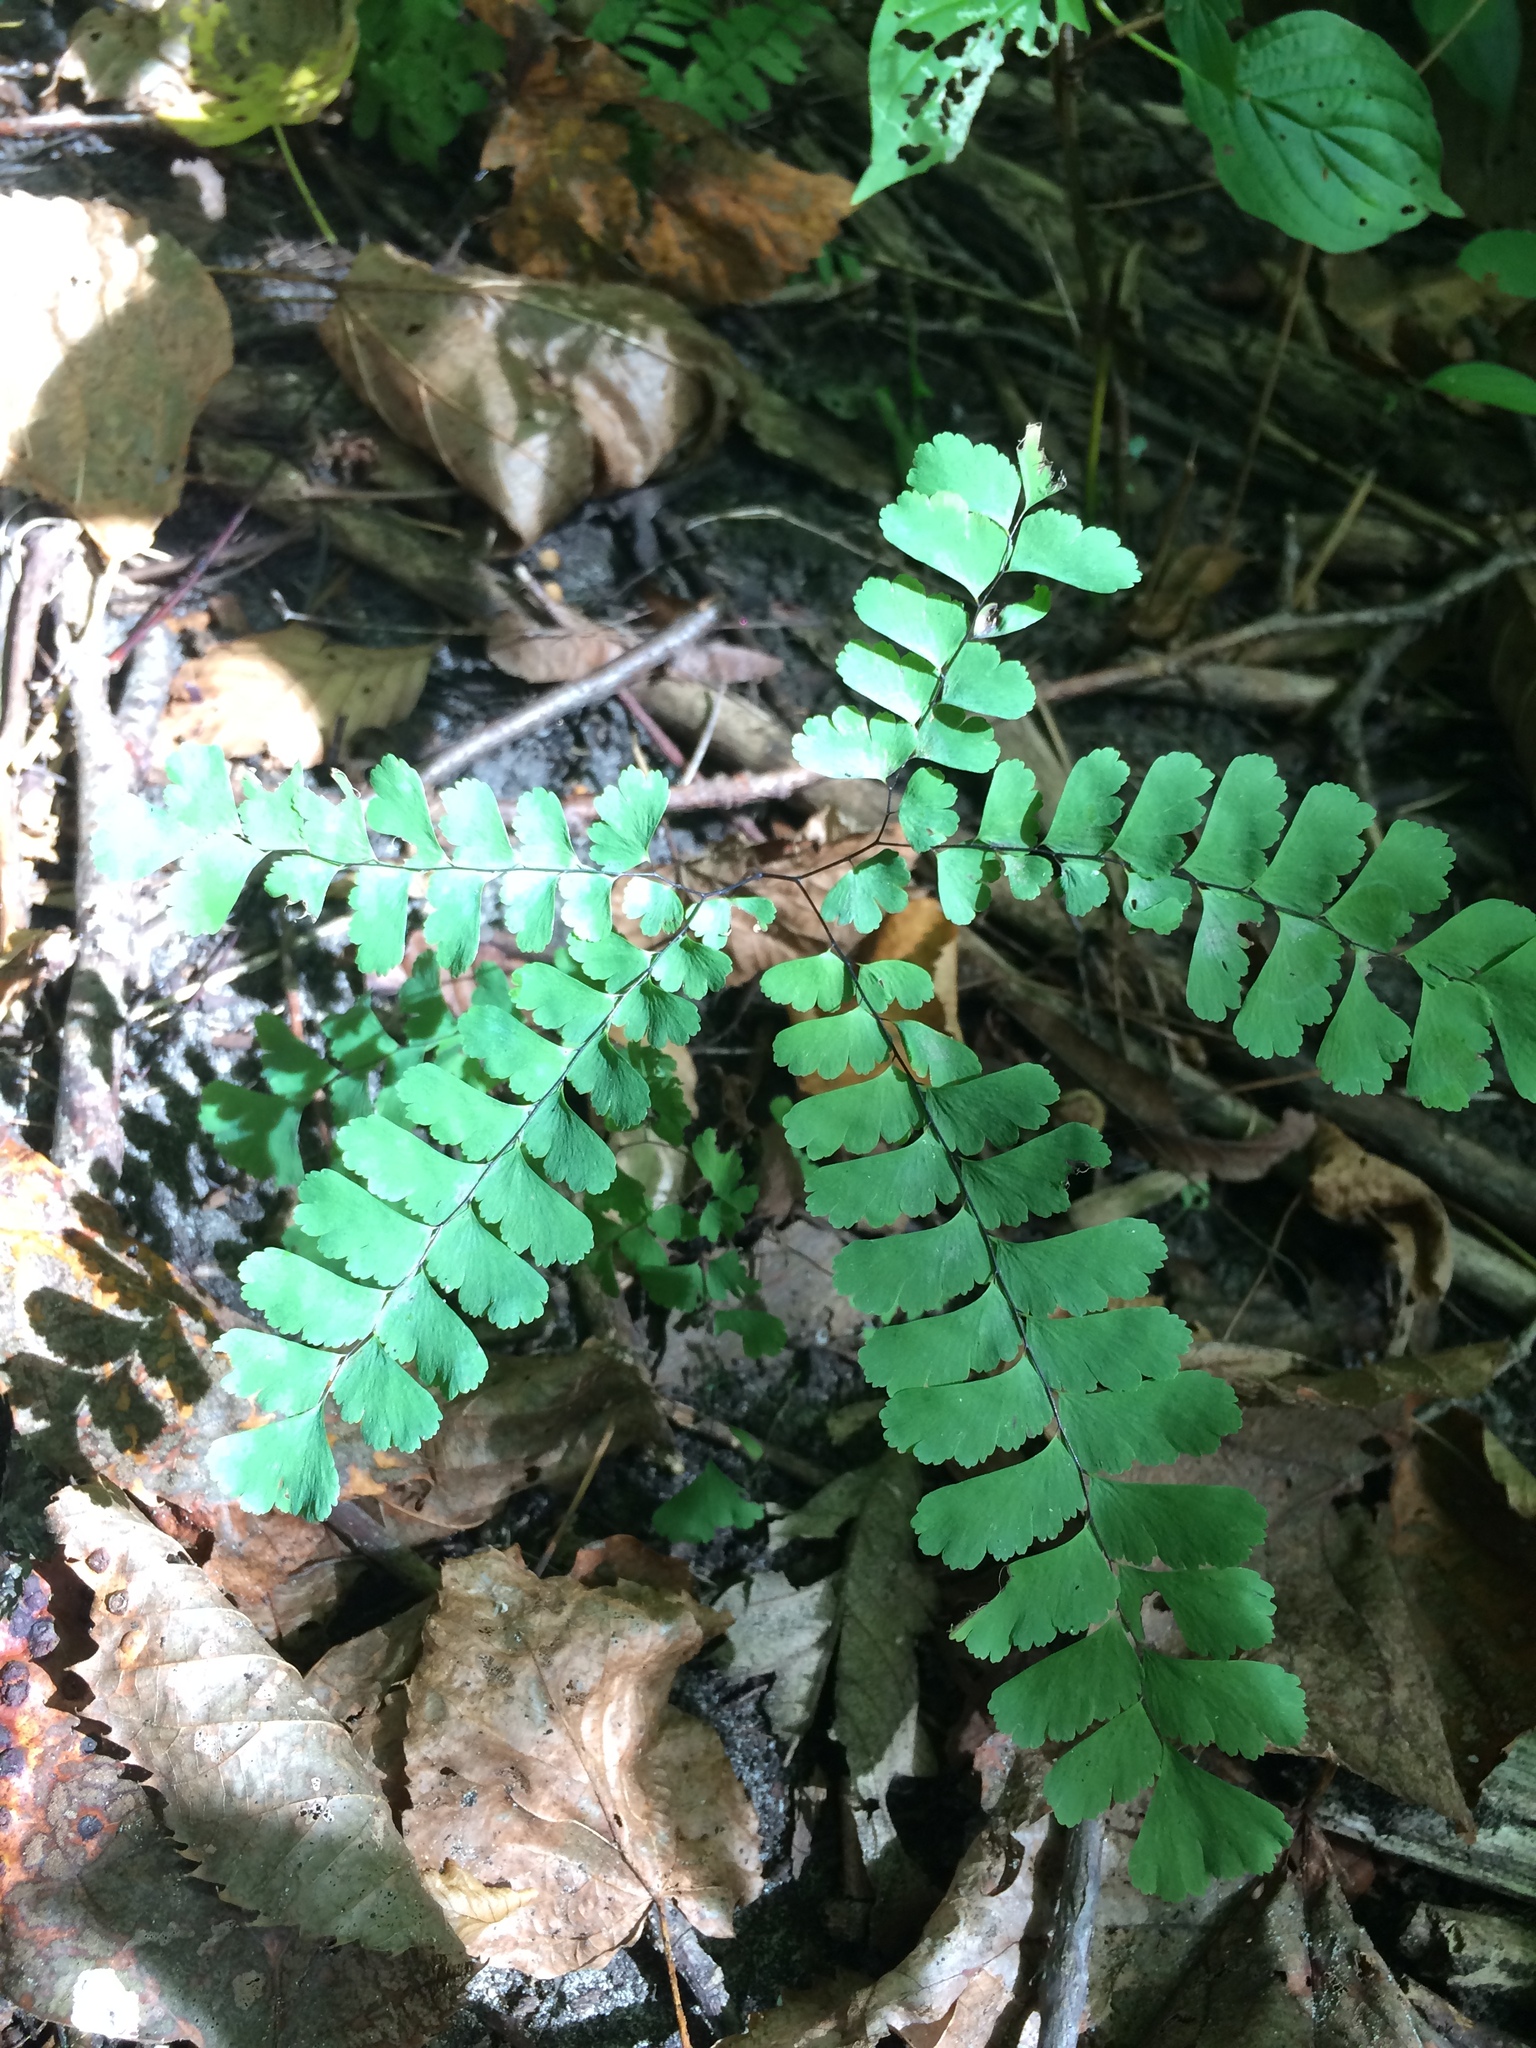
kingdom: Plantae
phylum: Tracheophyta
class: Polypodiopsida
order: Polypodiales
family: Pteridaceae
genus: Adiantum
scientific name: Adiantum pedatum
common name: Five-finger fern
